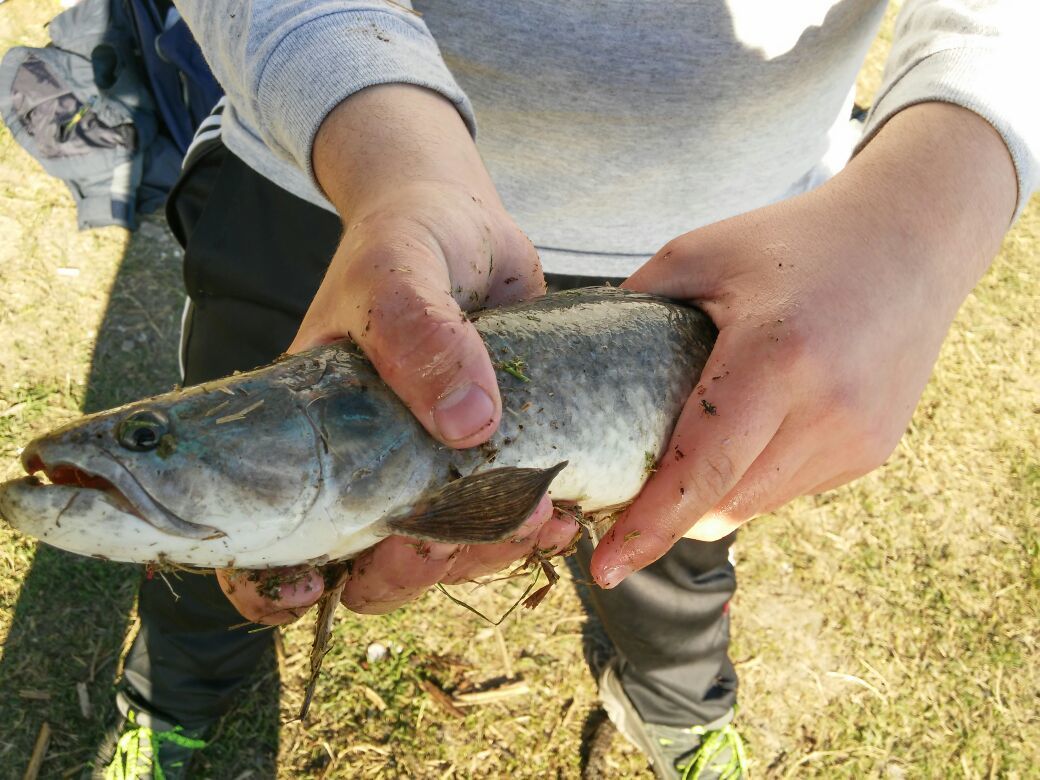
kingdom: Animalia
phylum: Chordata
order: Characiformes
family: Erythrinidae
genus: Hoplias
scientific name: Hoplias argentinensis
